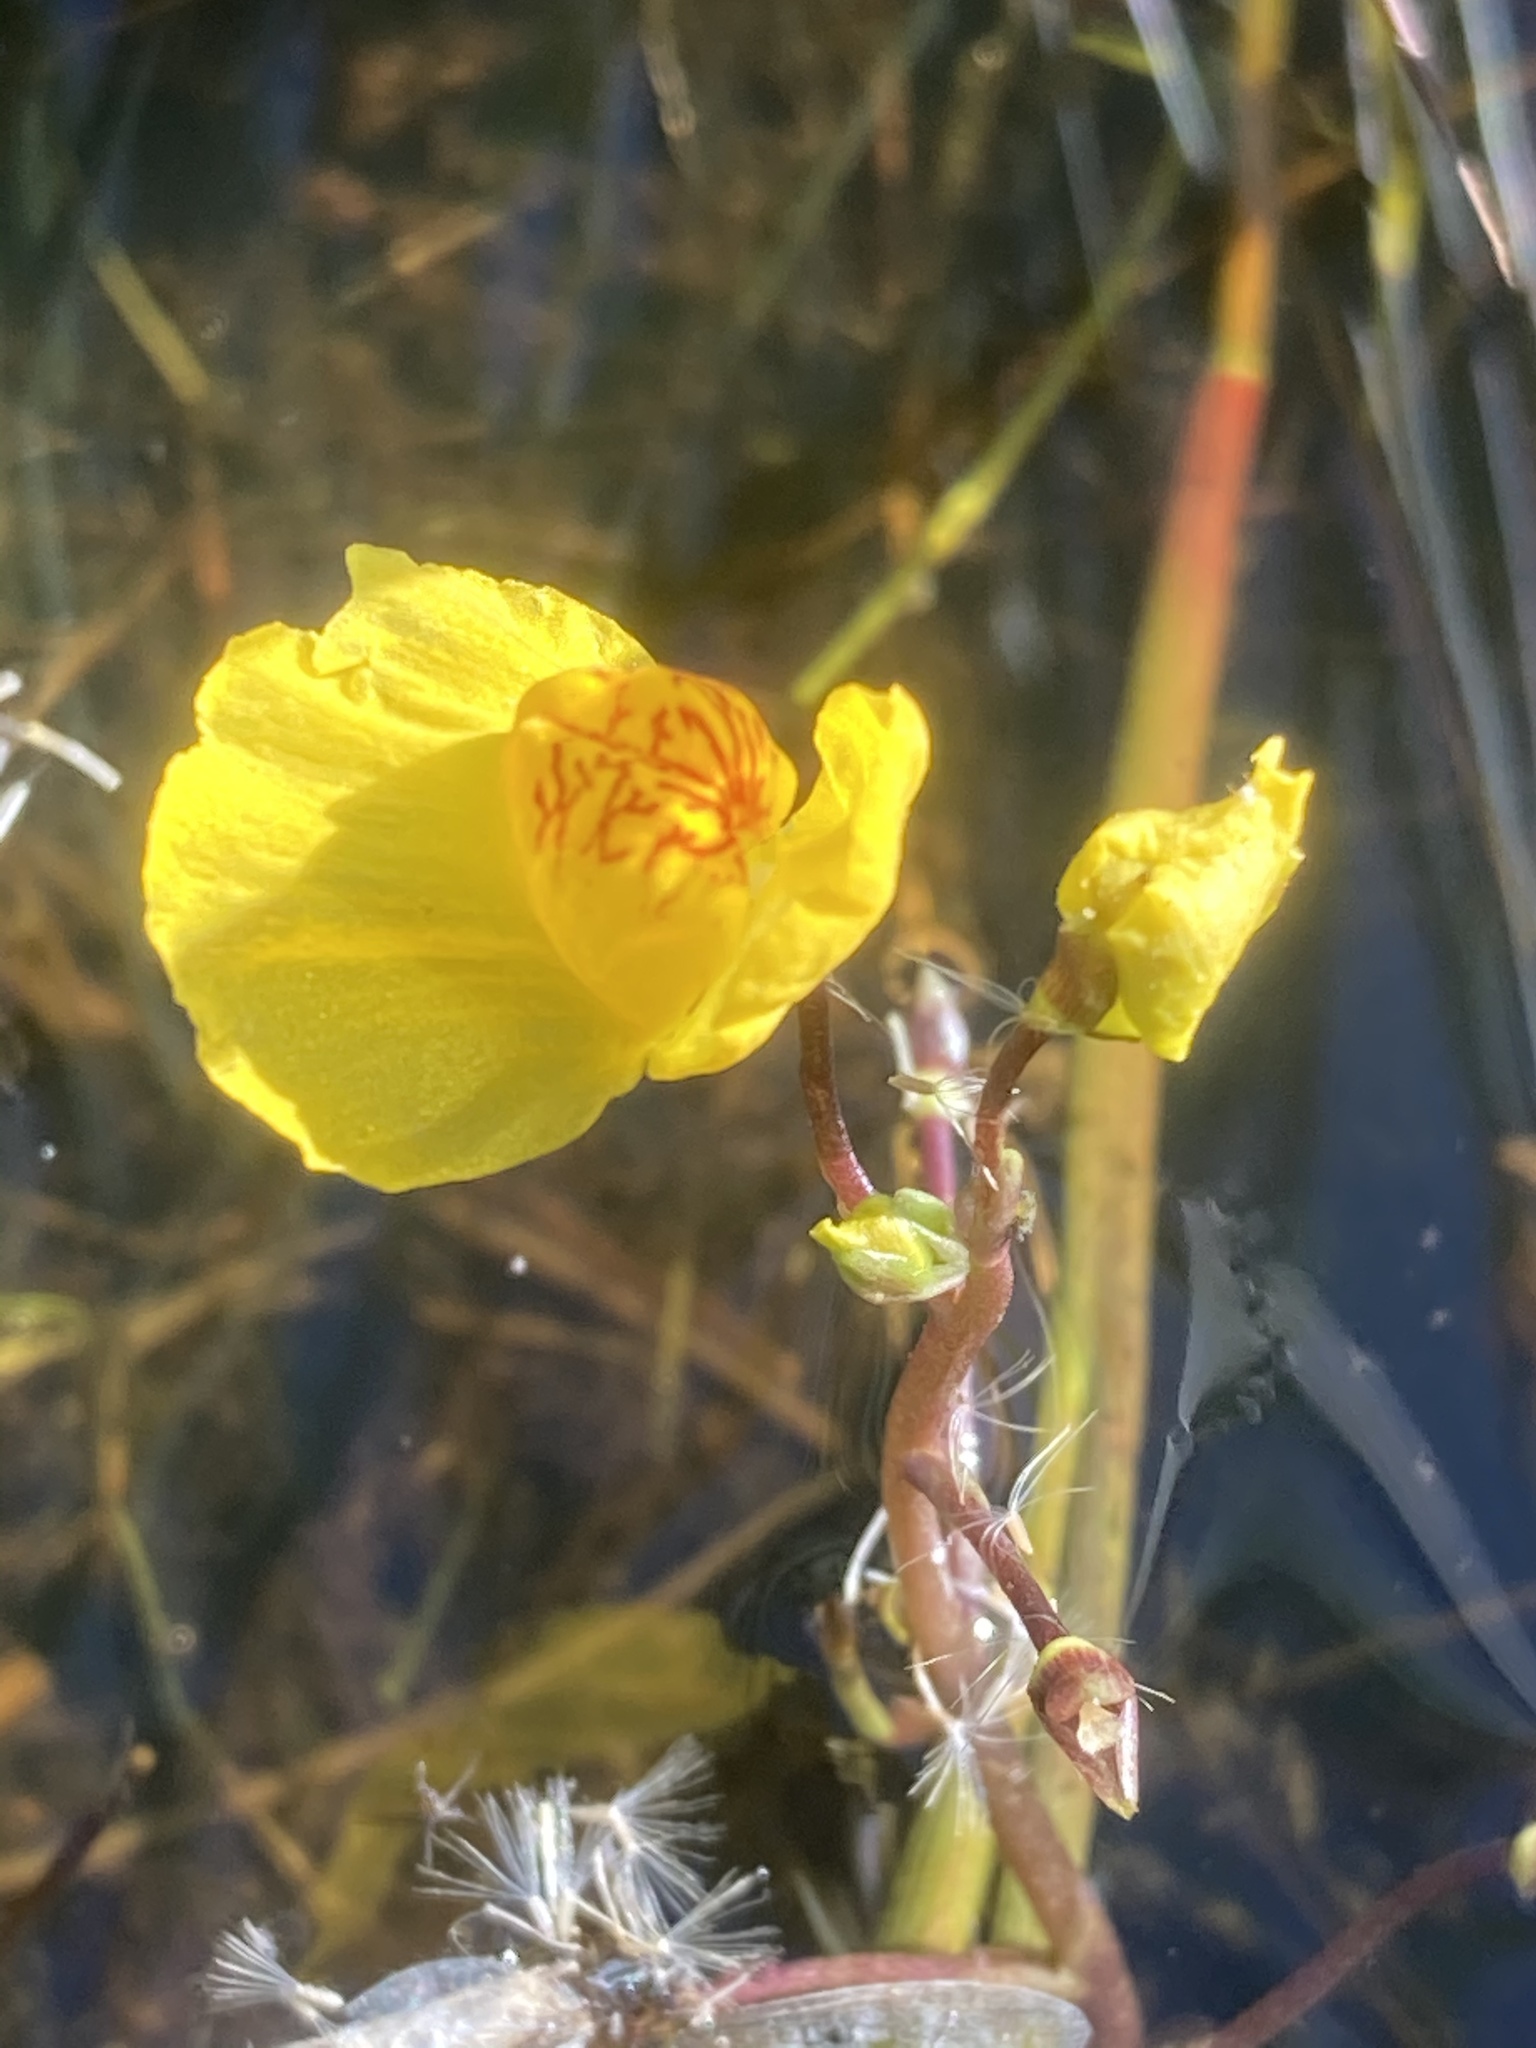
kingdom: Plantae
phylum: Tracheophyta
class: Magnoliopsida
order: Lamiales
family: Lentibulariaceae
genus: Utricularia
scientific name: Utricularia australis
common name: Bladderwort
